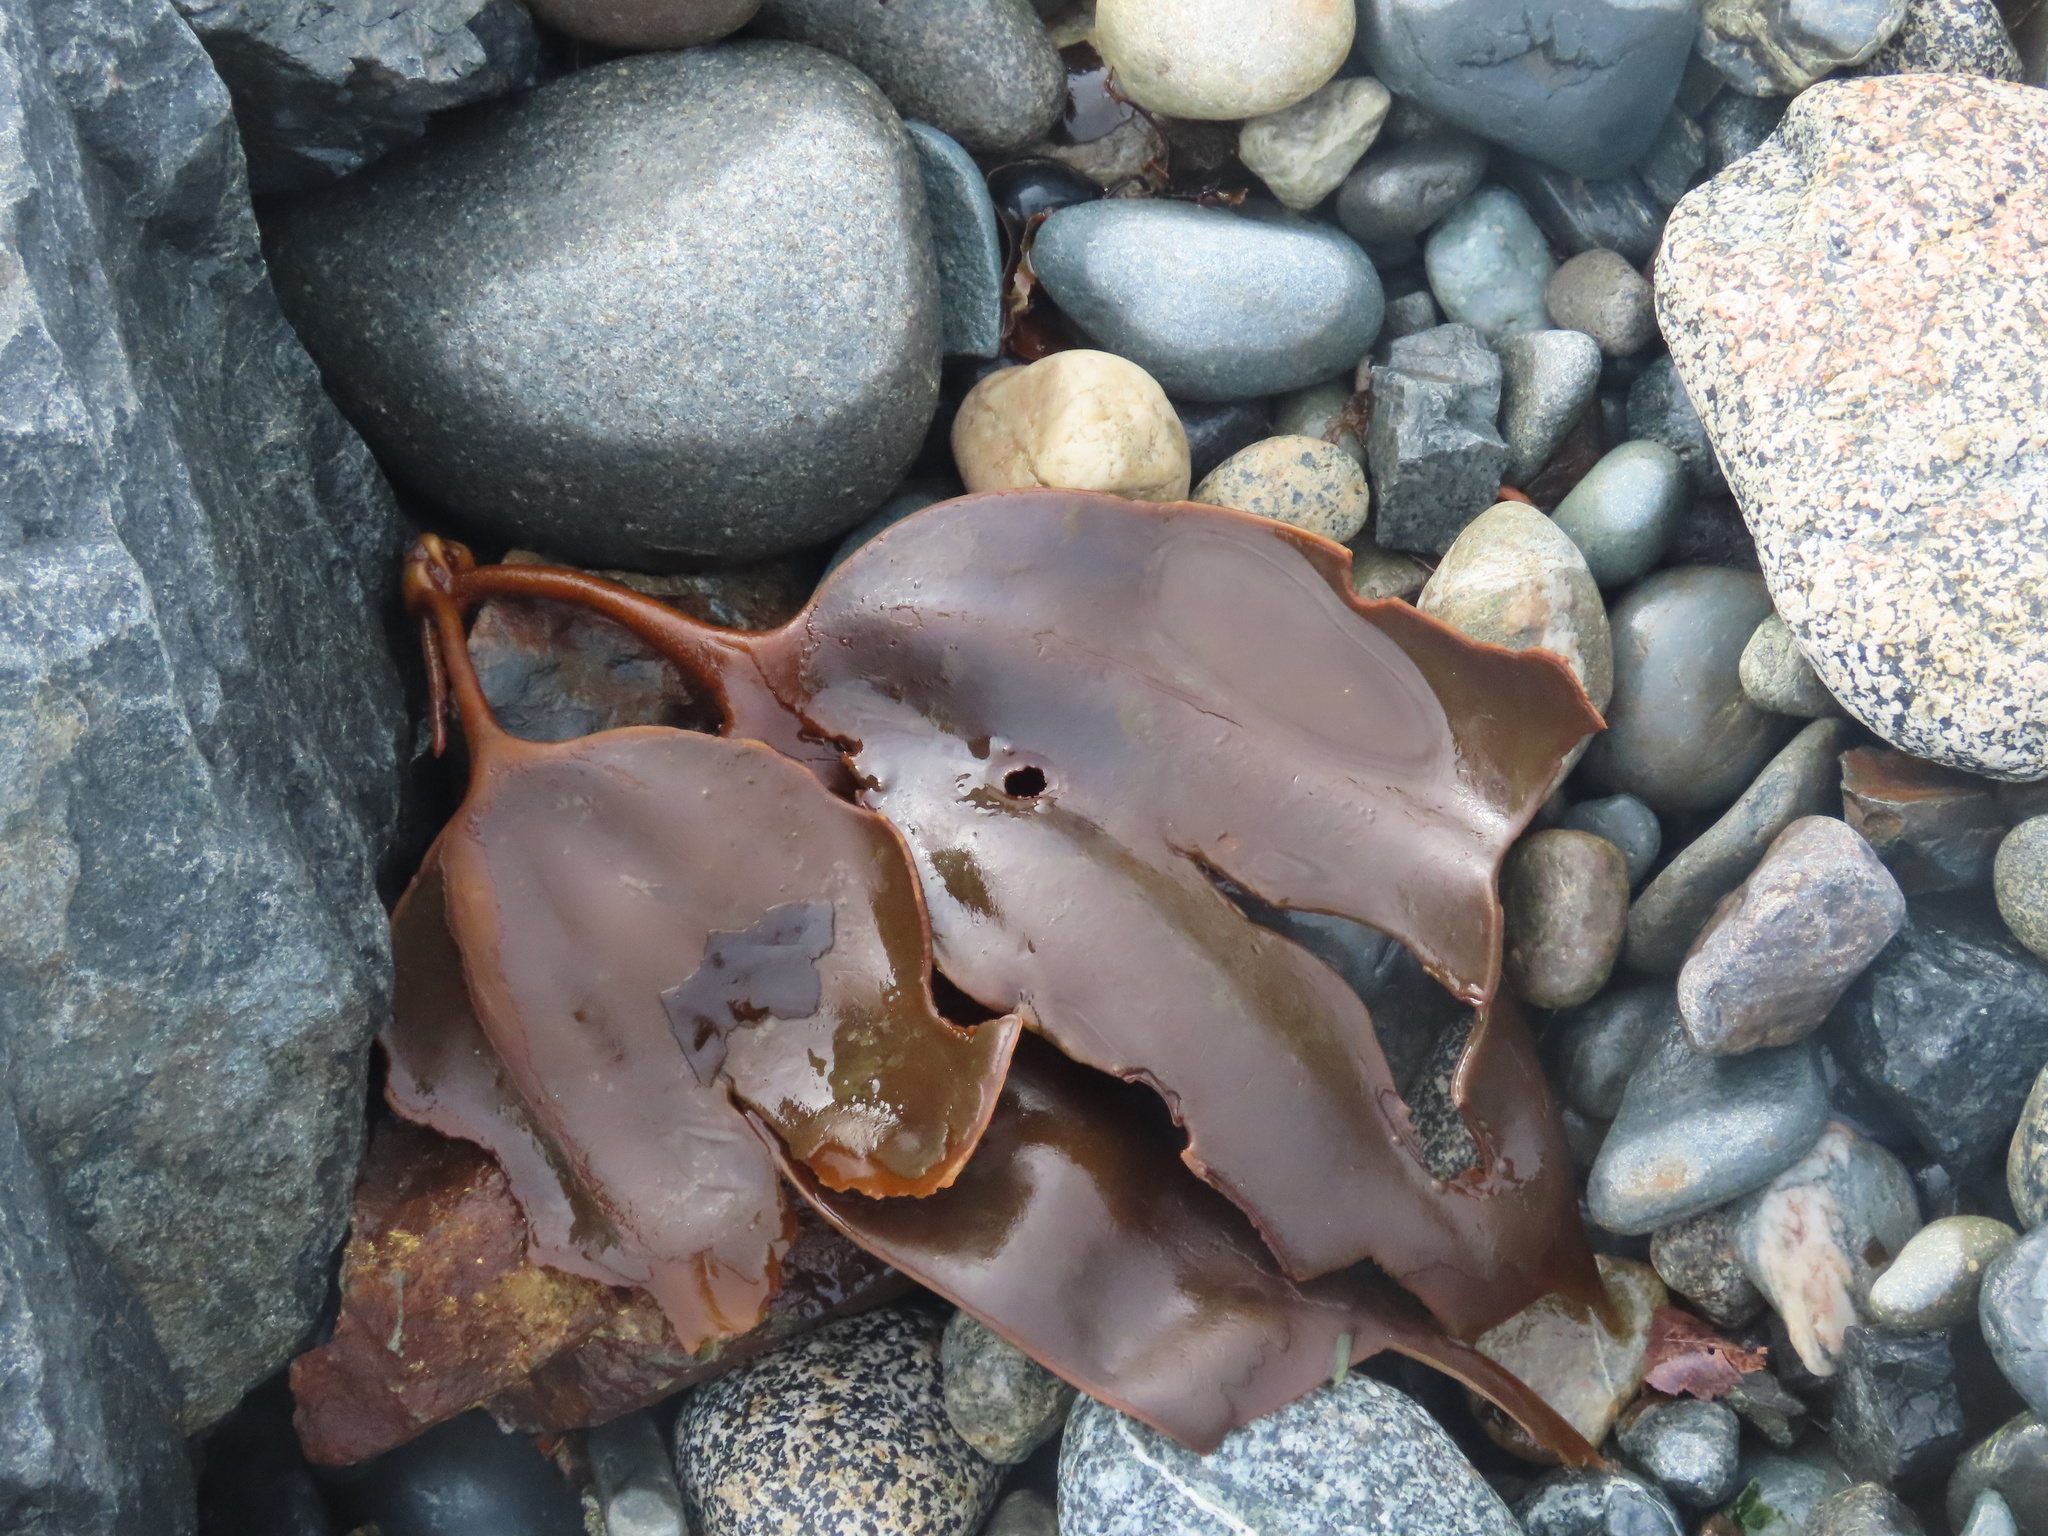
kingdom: Chromista
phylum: Ochrophyta
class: Phaeophyceae
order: Laminariales
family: Laminariaceae
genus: Cymathaere
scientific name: Cymathaere triplicata
